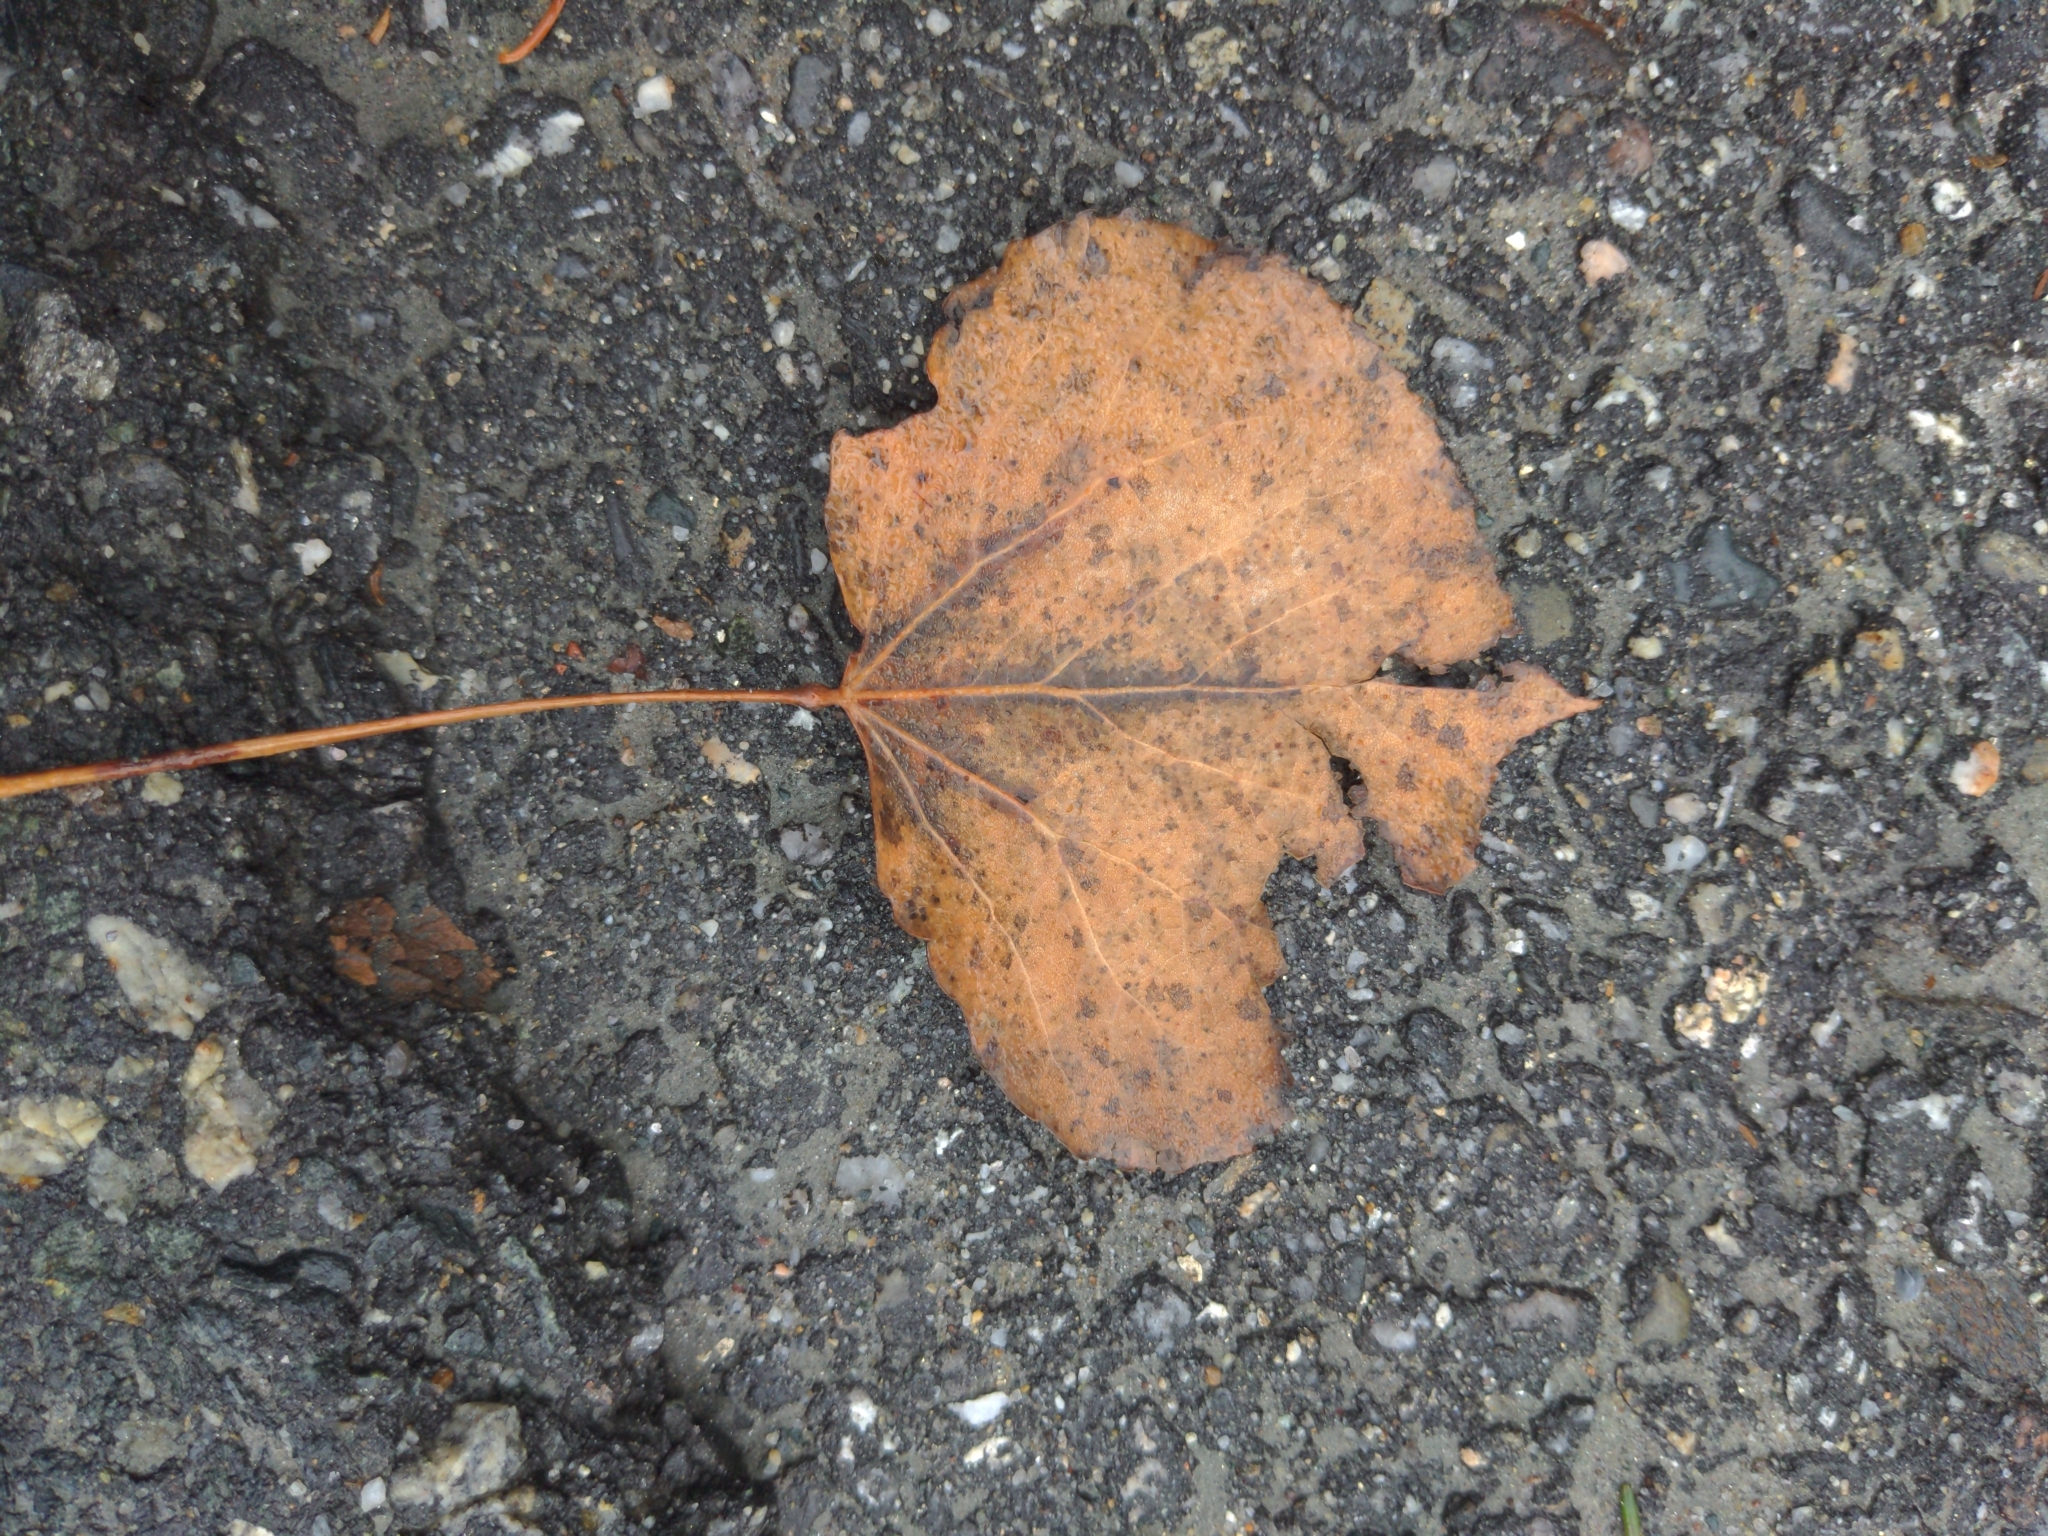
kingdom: Plantae
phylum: Tracheophyta
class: Magnoliopsida
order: Malpighiales
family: Salicaceae
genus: Populus
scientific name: Populus tremuloides
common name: Quaking aspen
